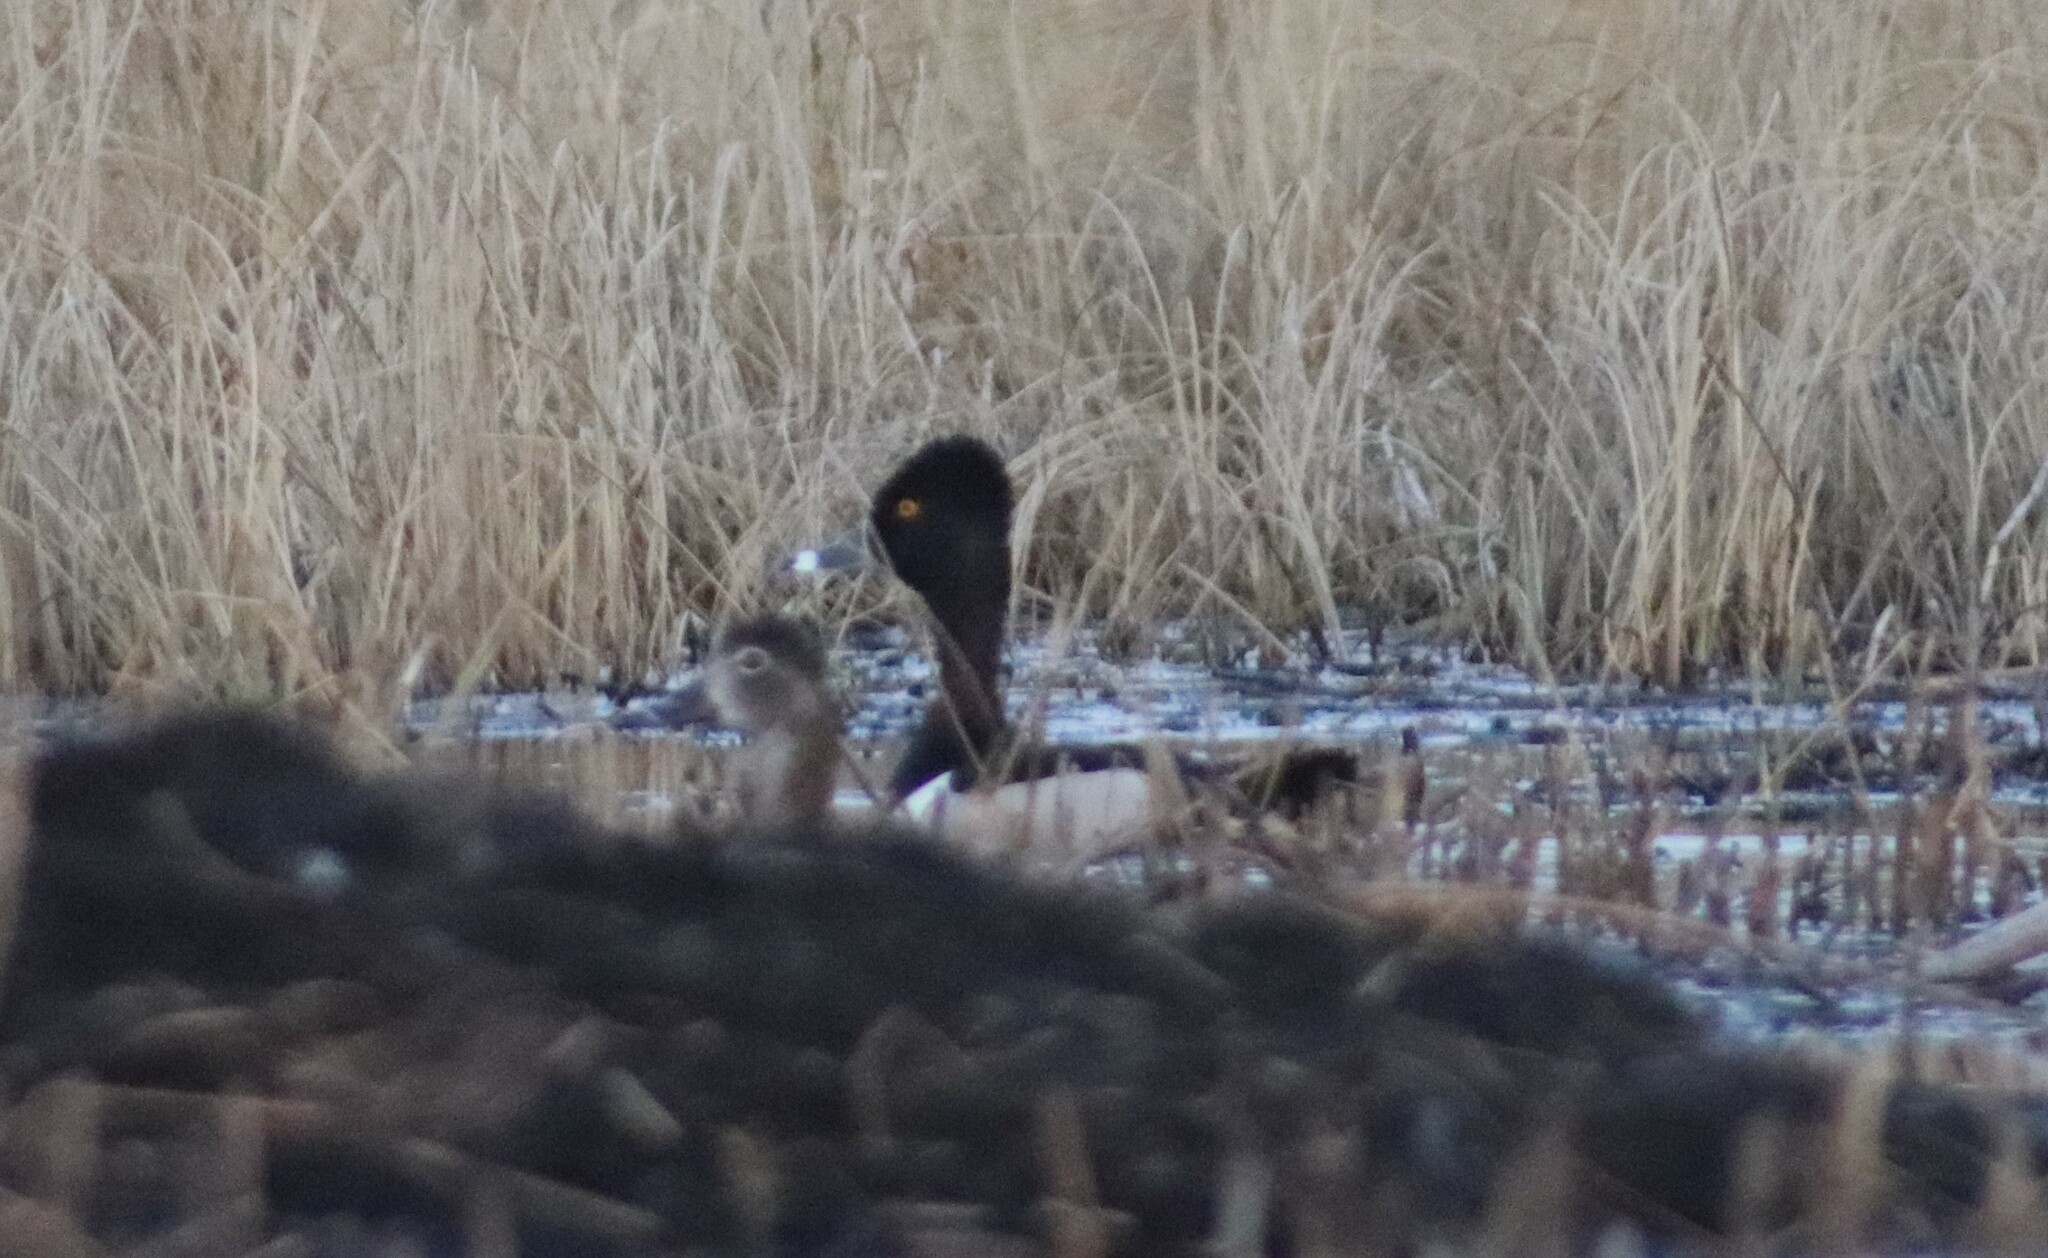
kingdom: Animalia
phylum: Chordata
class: Aves
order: Anseriformes
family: Anatidae
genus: Aythya
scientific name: Aythya collaris
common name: Ring-necked duck
